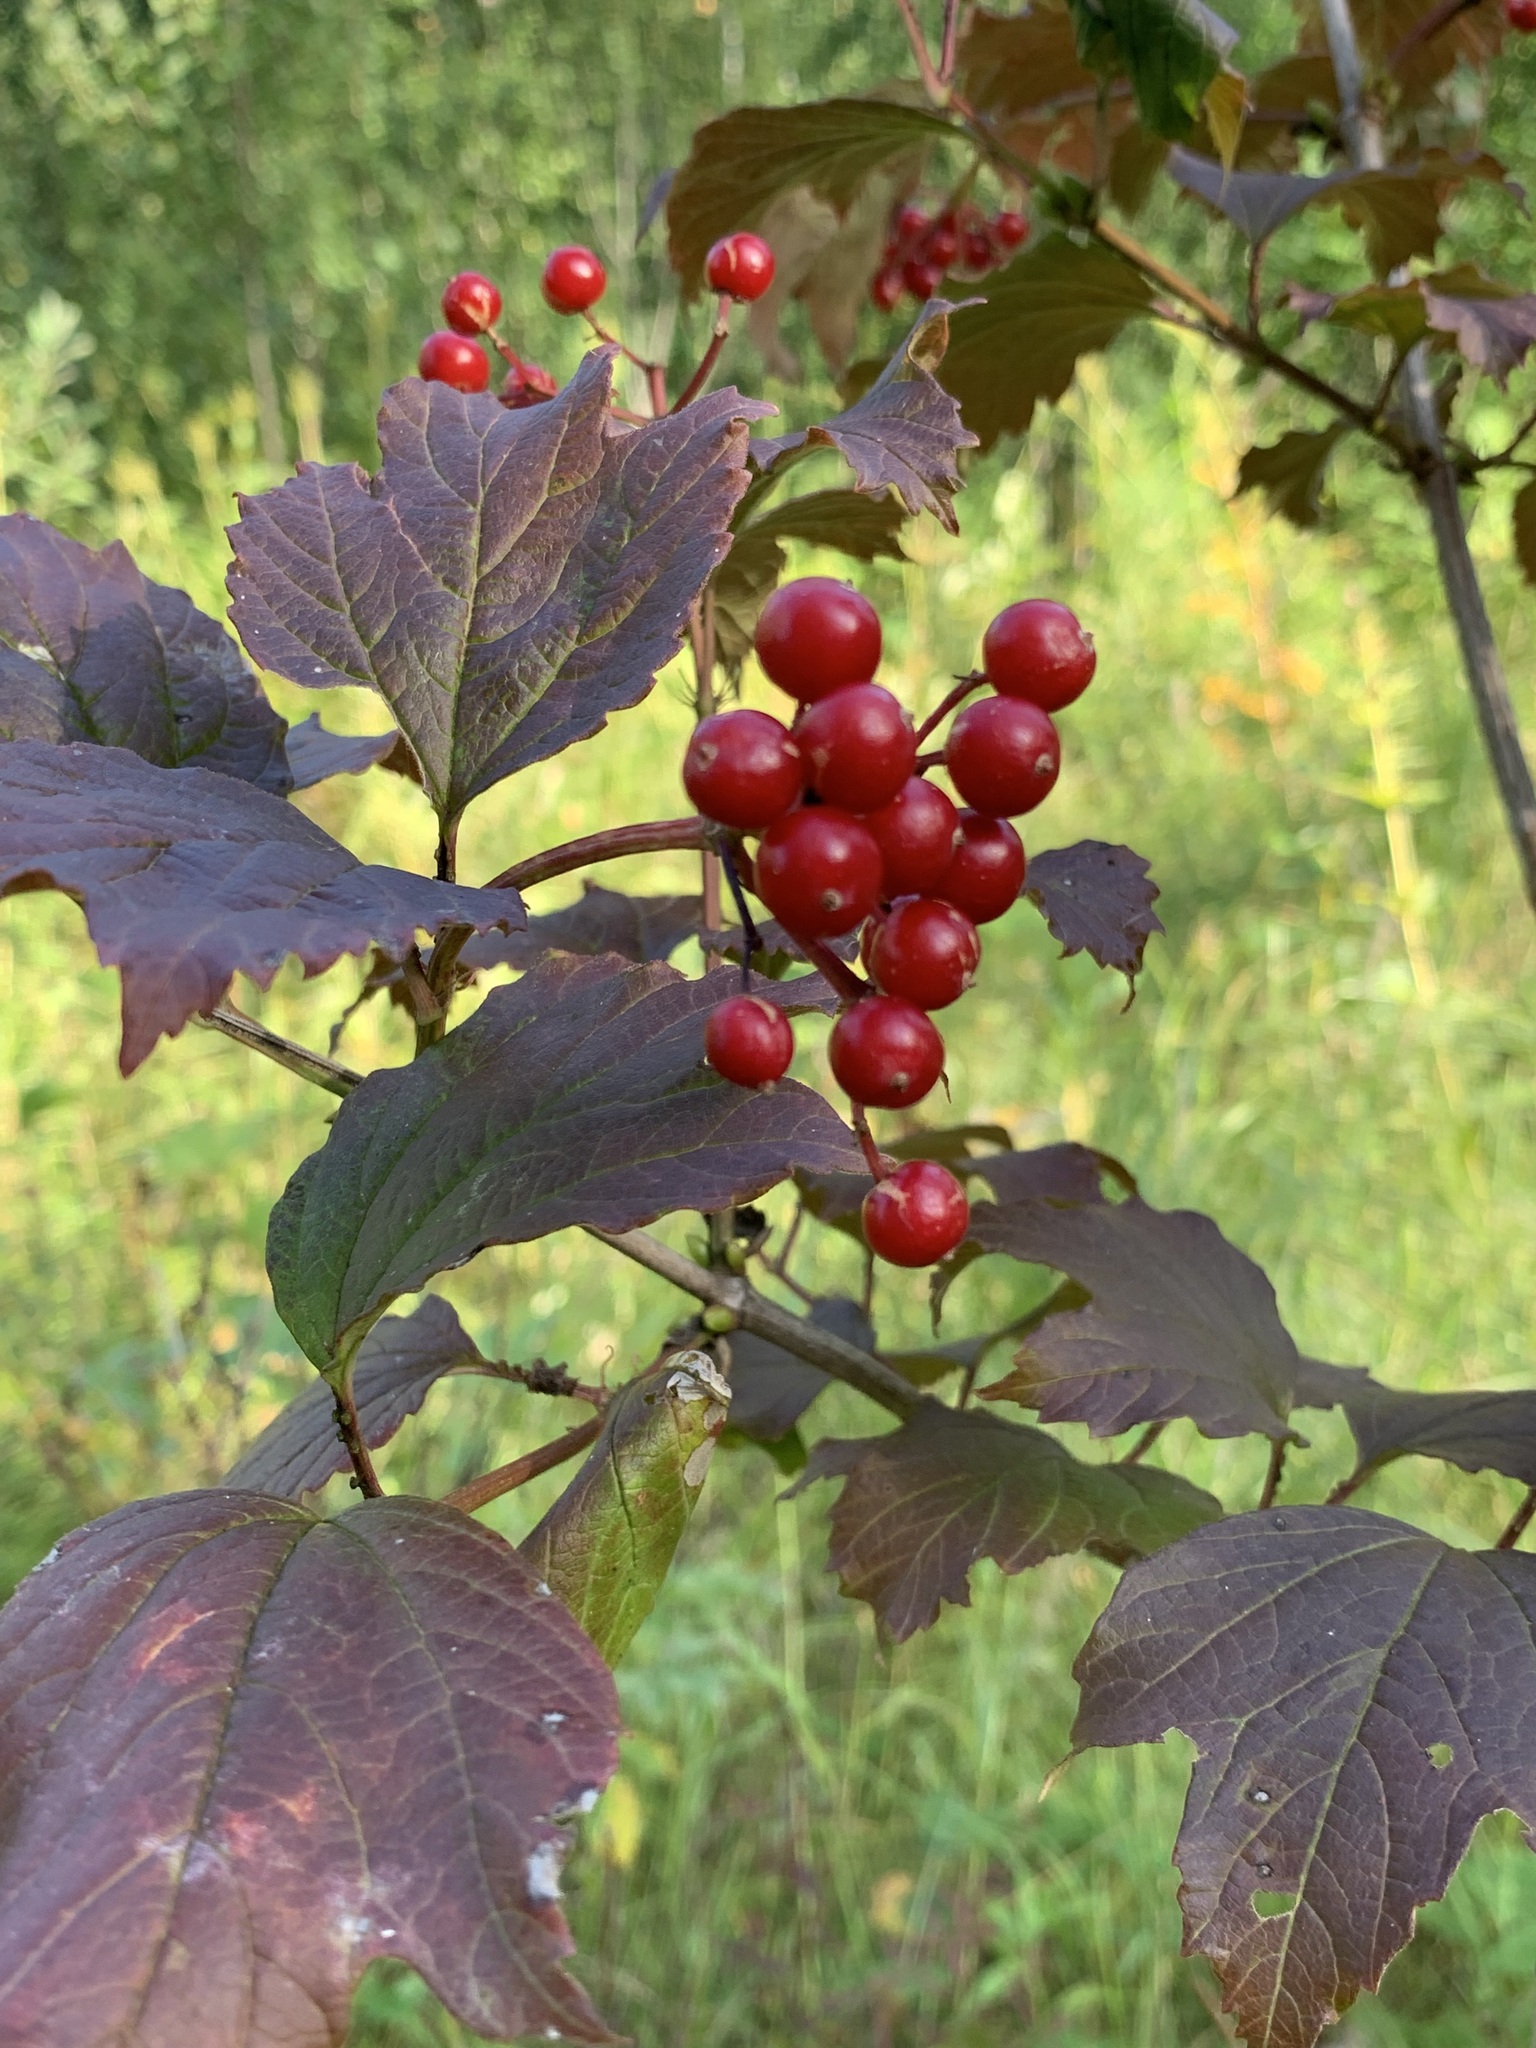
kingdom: Plantae
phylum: Tracheophyta
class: Magnoliopsida
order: Dipsacales
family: Viburnaceae
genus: Viburnum
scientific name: Viburnum opulus
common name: Guelder-rose
